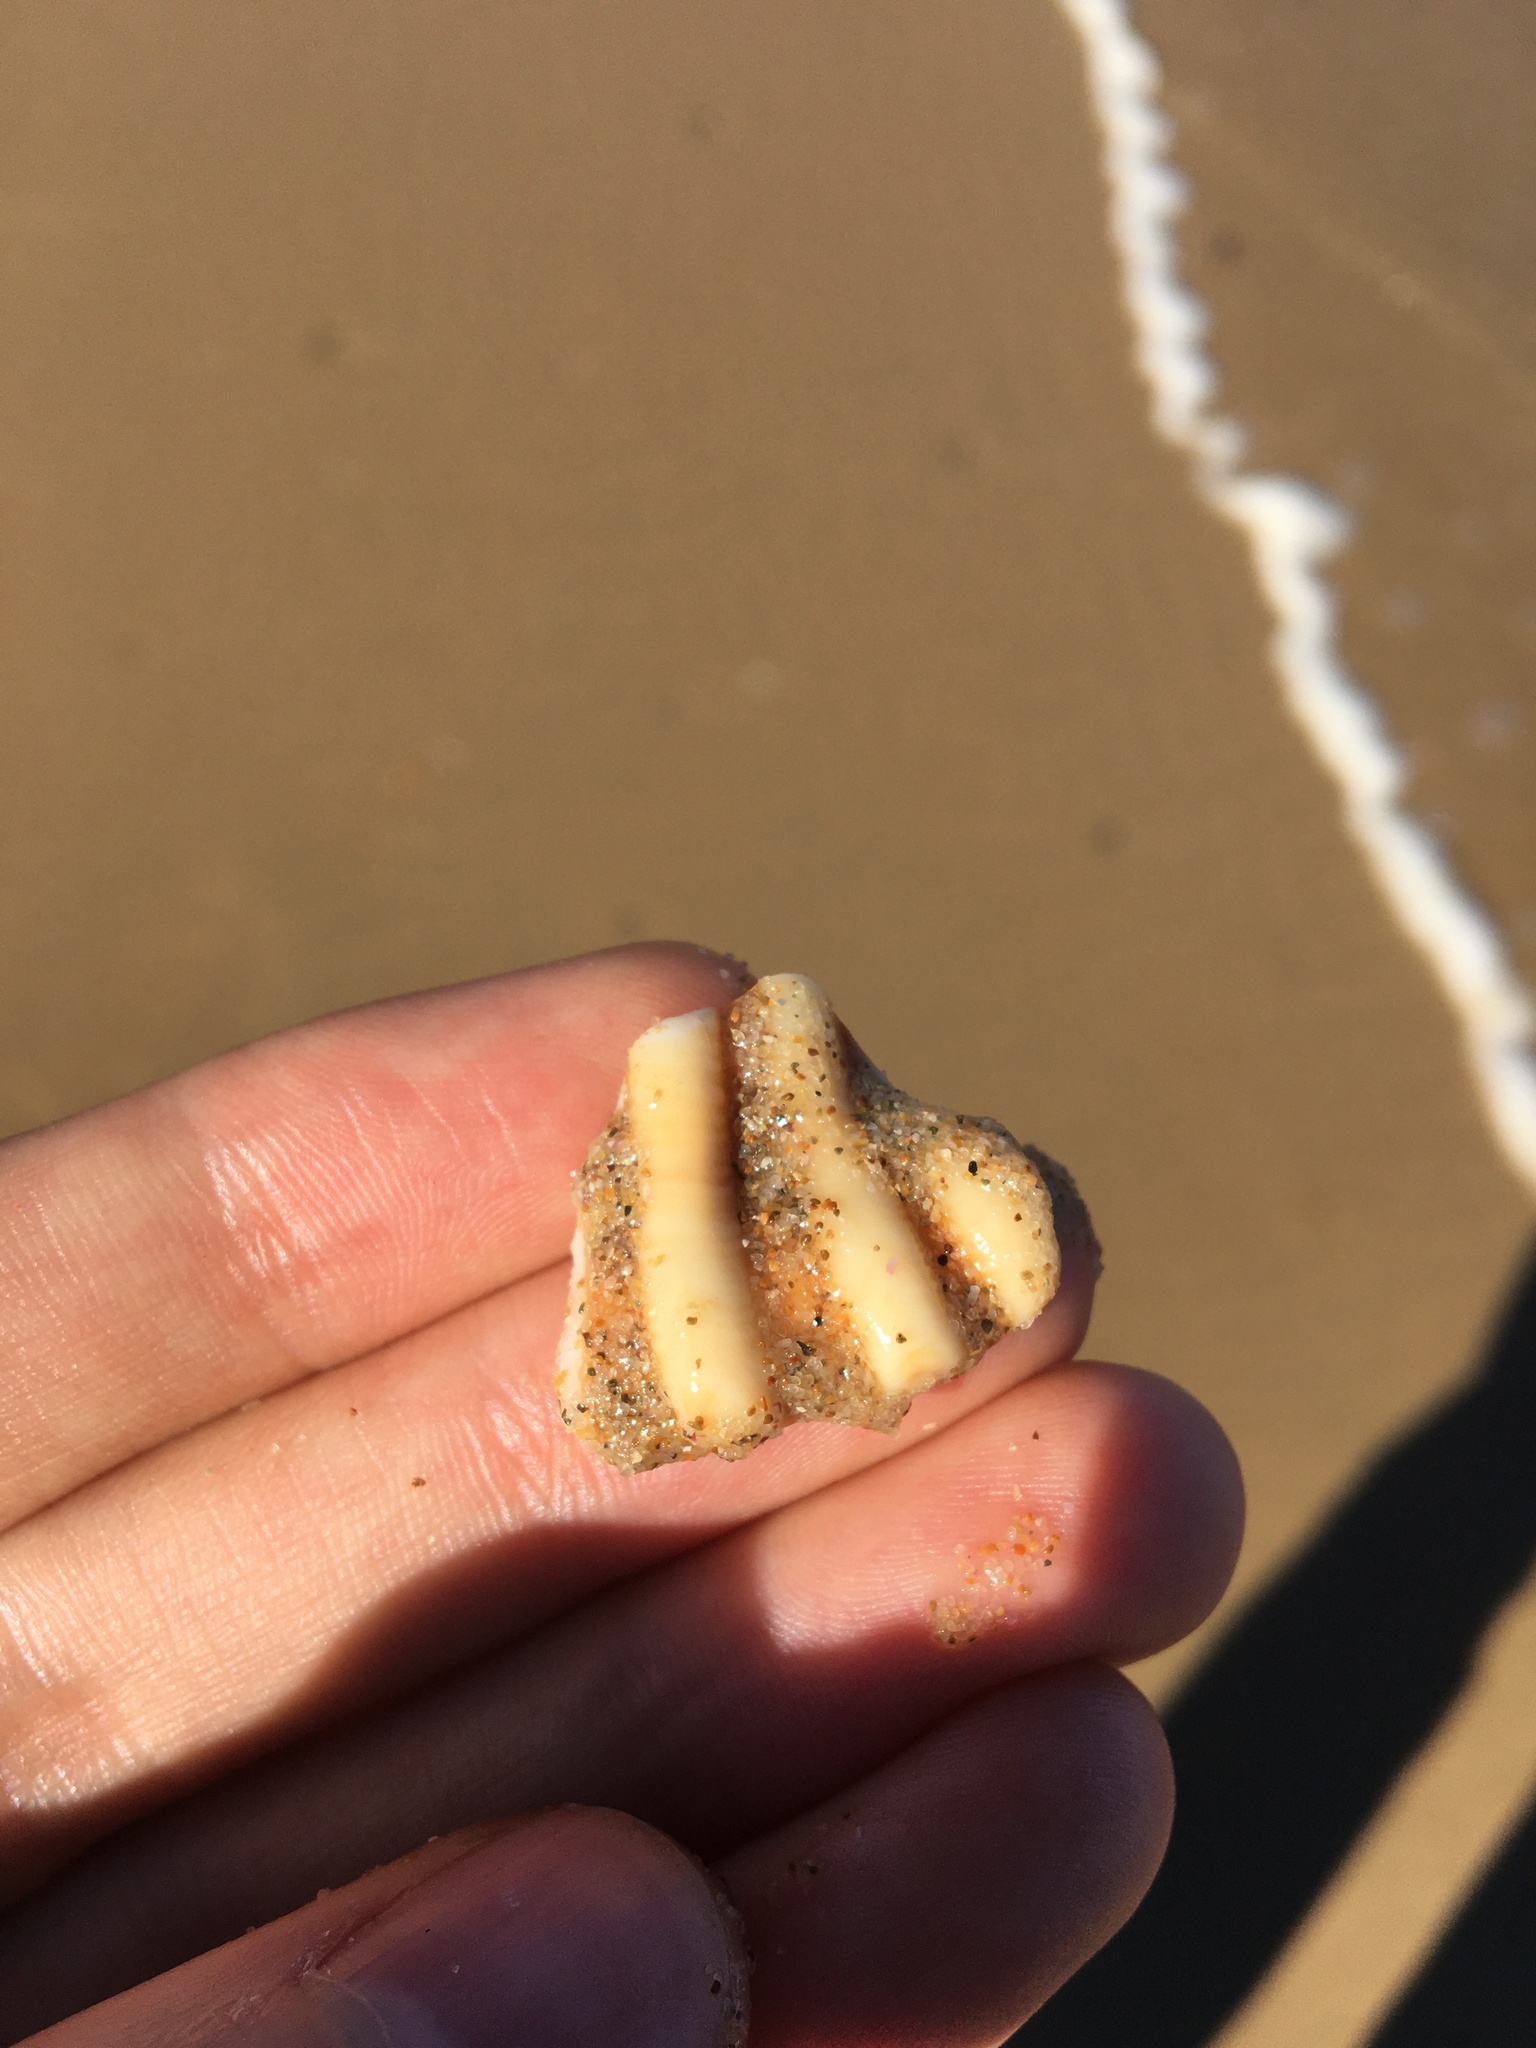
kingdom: Animalia
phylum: Mollusca
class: Gastropoda
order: Littorinimorpha
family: Cymatiidae
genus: Cabestana
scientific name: Cabestana spengleri
